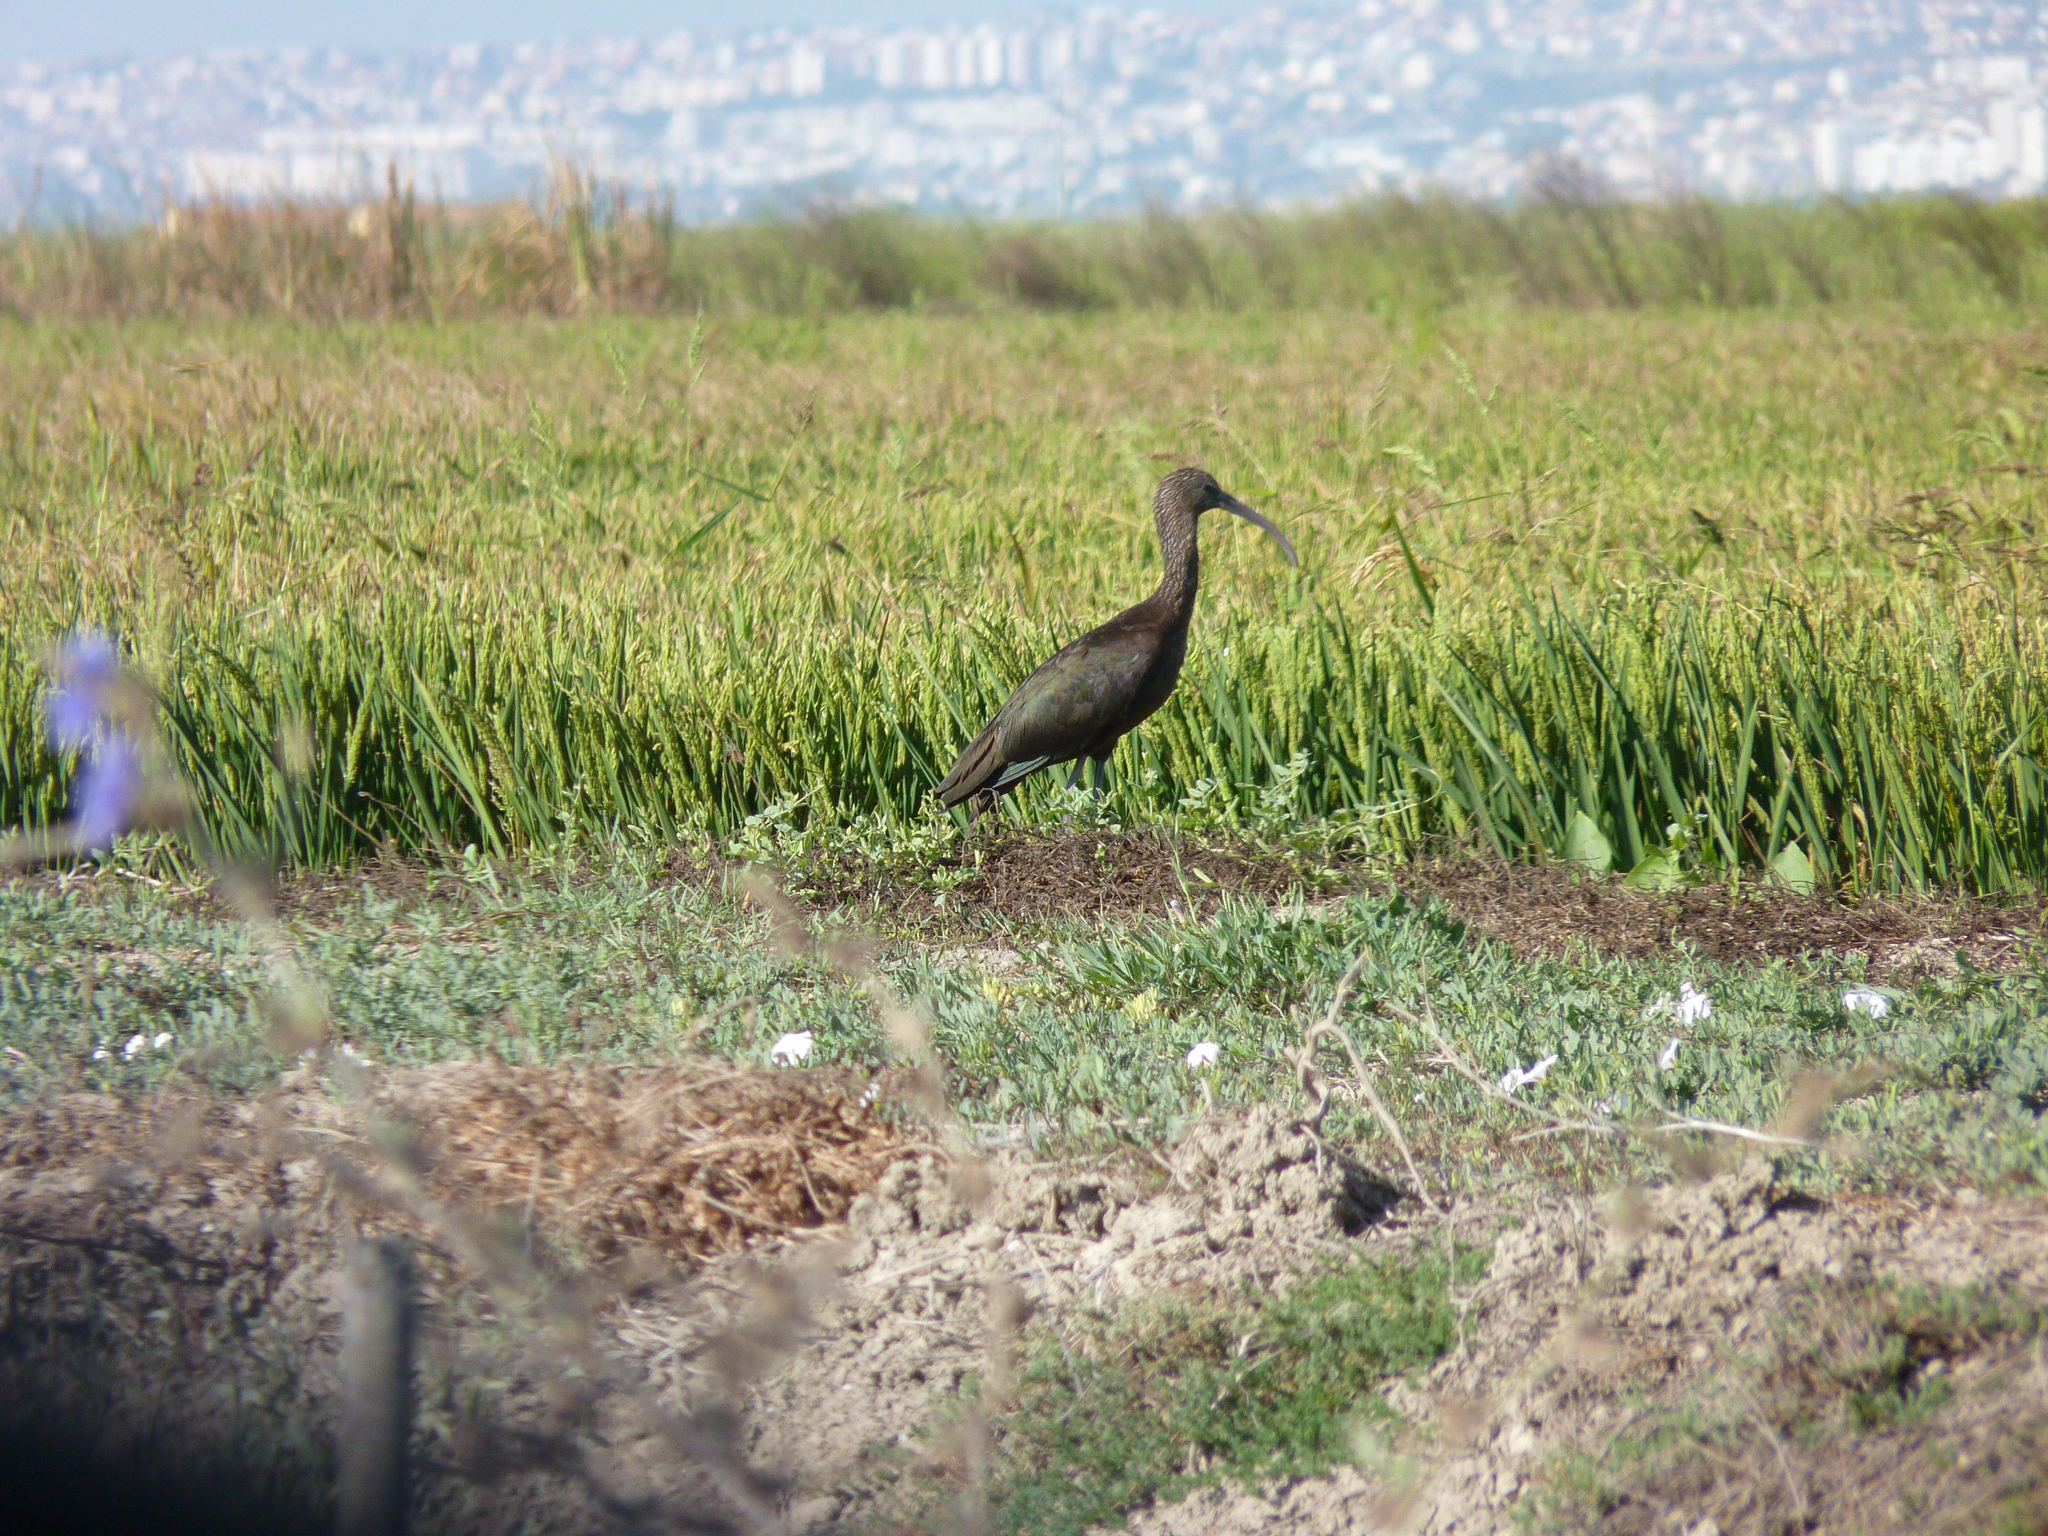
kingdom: Animalia
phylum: Chordata
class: Aves
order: Pelecaniformes
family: Threskiornithidae
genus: Plegadis
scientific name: Plegadis falcinellus
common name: Glossy ibis
